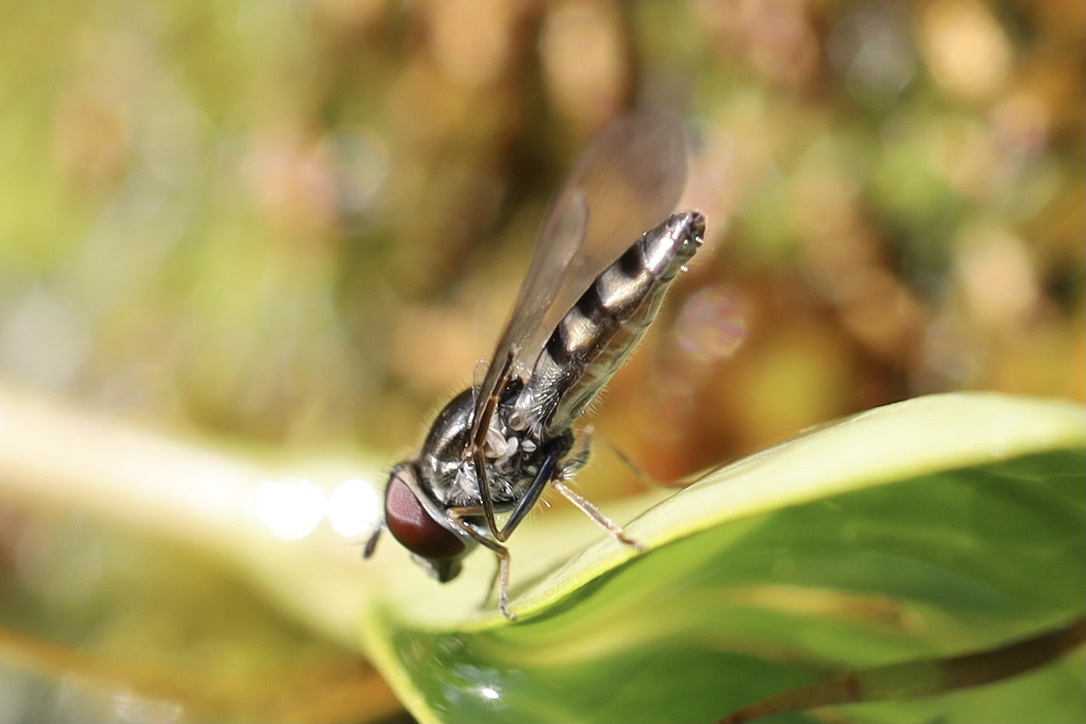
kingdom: Animalia
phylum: Arthropoda
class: Insecta
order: Diptera
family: Syrphidae
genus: Platycheirus
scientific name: Platycheirus trichopus
